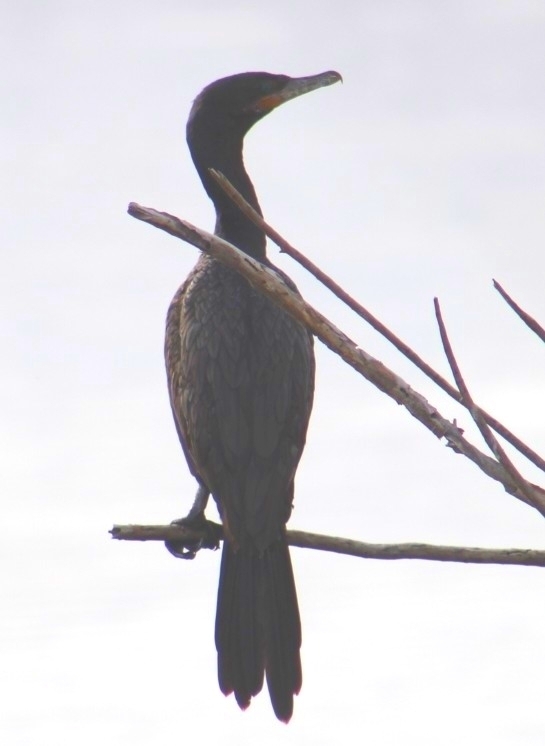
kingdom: Animalia
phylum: Chordata
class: Aves
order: Suliformes
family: Phalacrocoracidae
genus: Phalacrocorax
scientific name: Phalacrocorax brasilianus
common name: Neotropic cormorant
